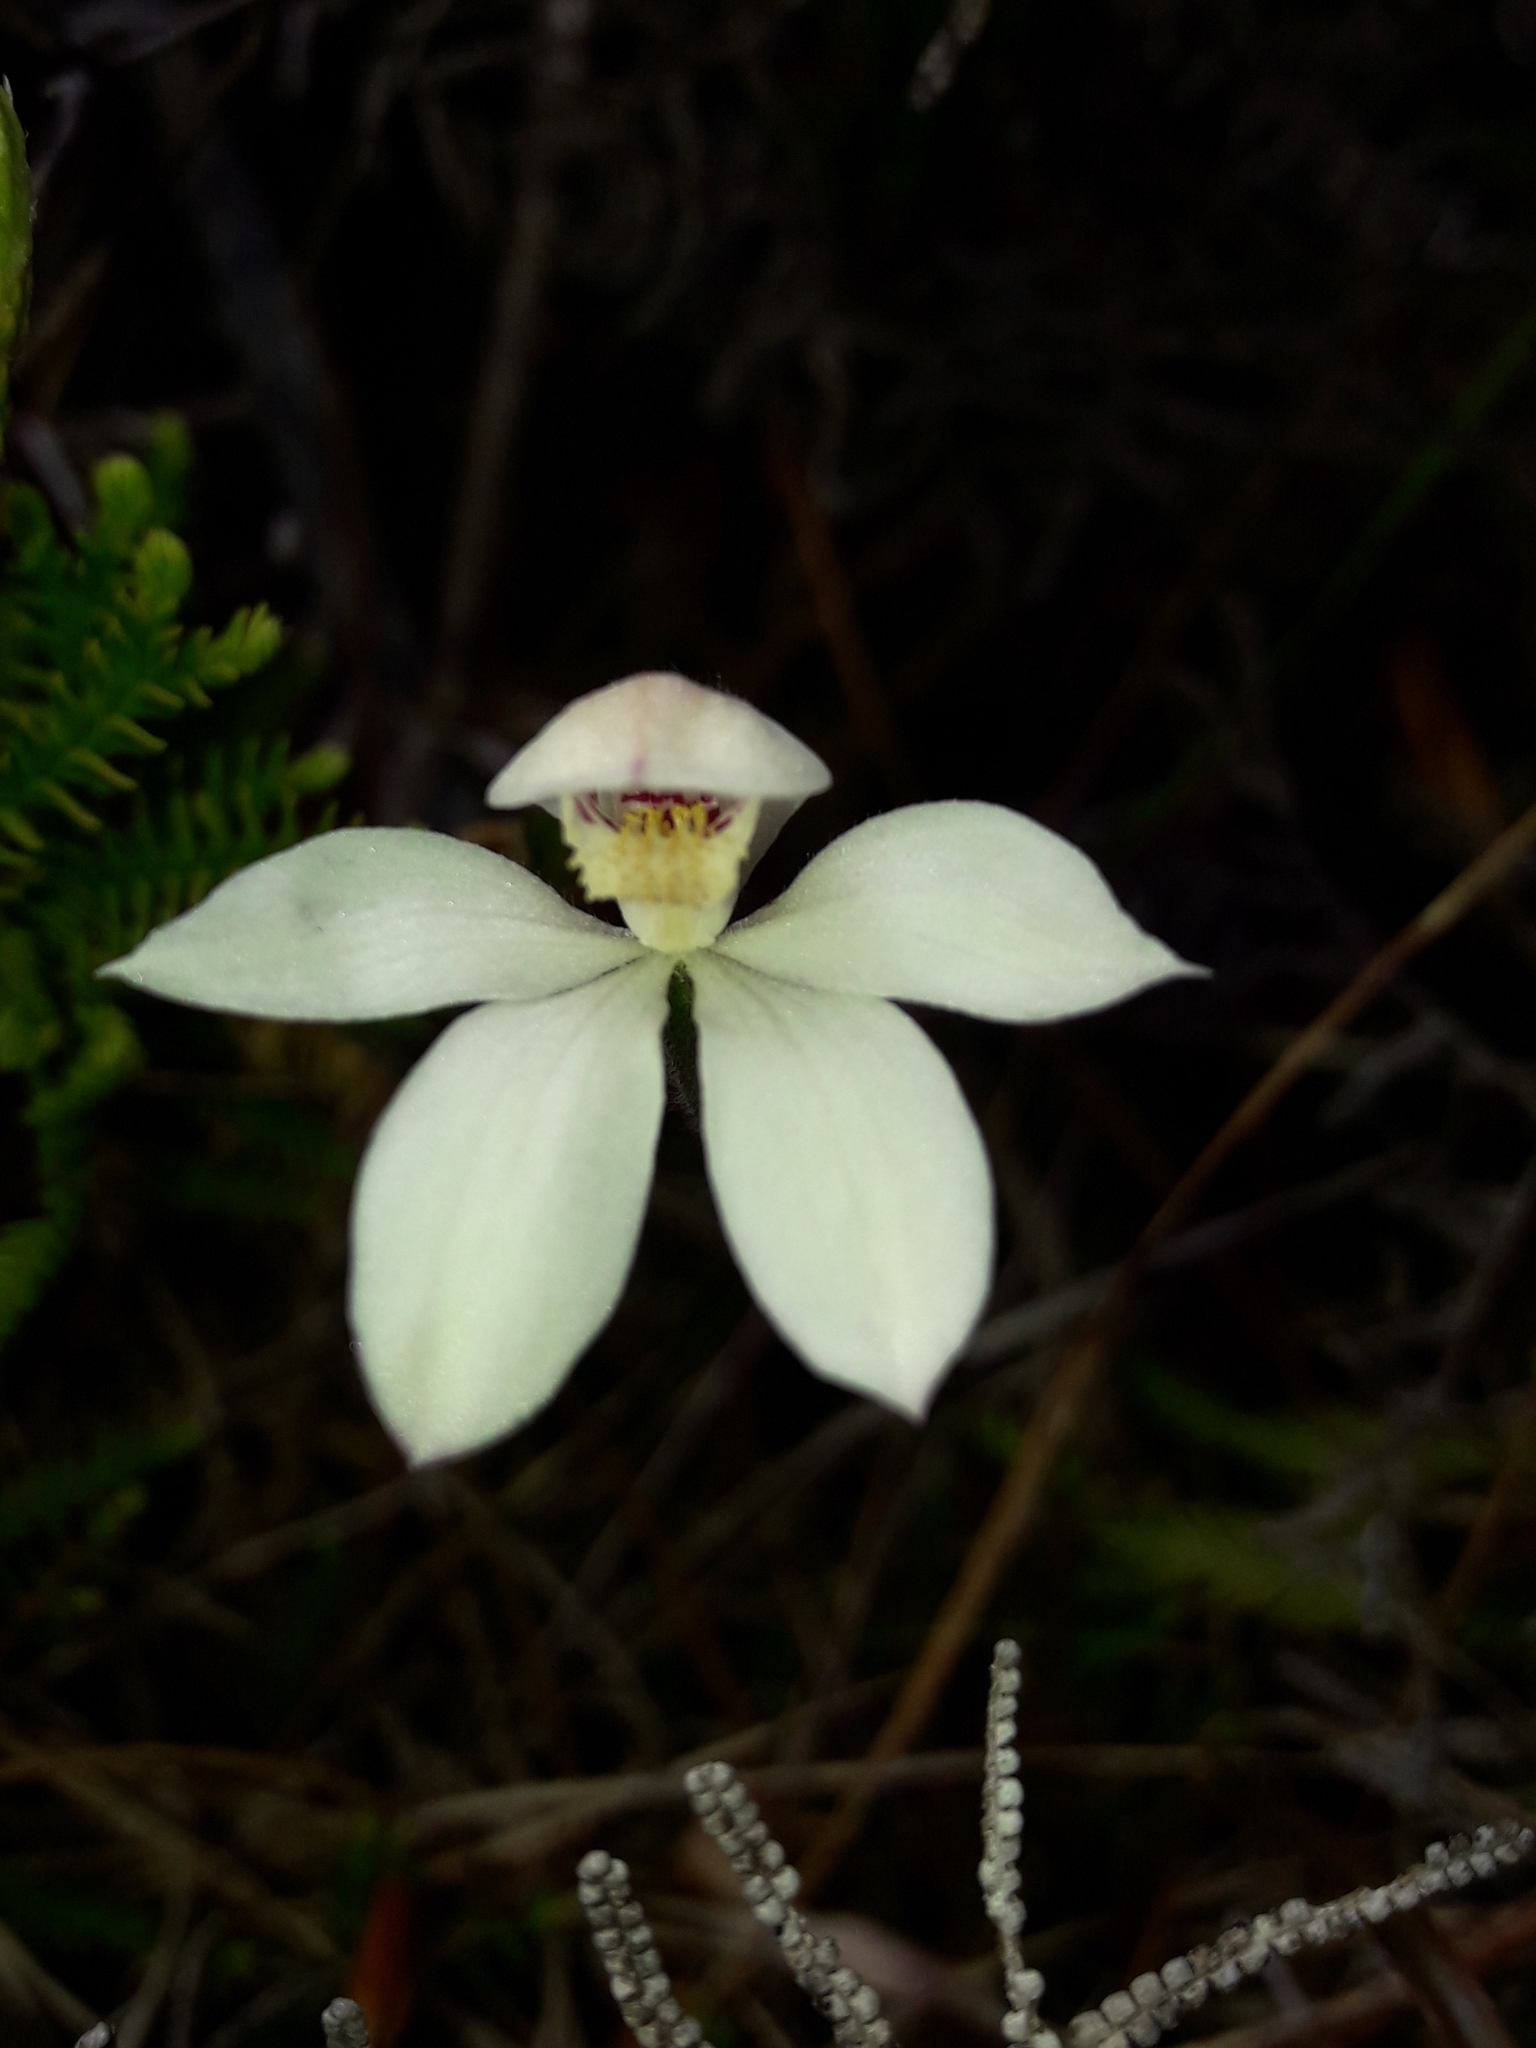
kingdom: Plantae
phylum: Tracheophyta
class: Liliopsida
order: Asparagales
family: Orchidaceae
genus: Caladenia
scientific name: Caladenia lyallii
